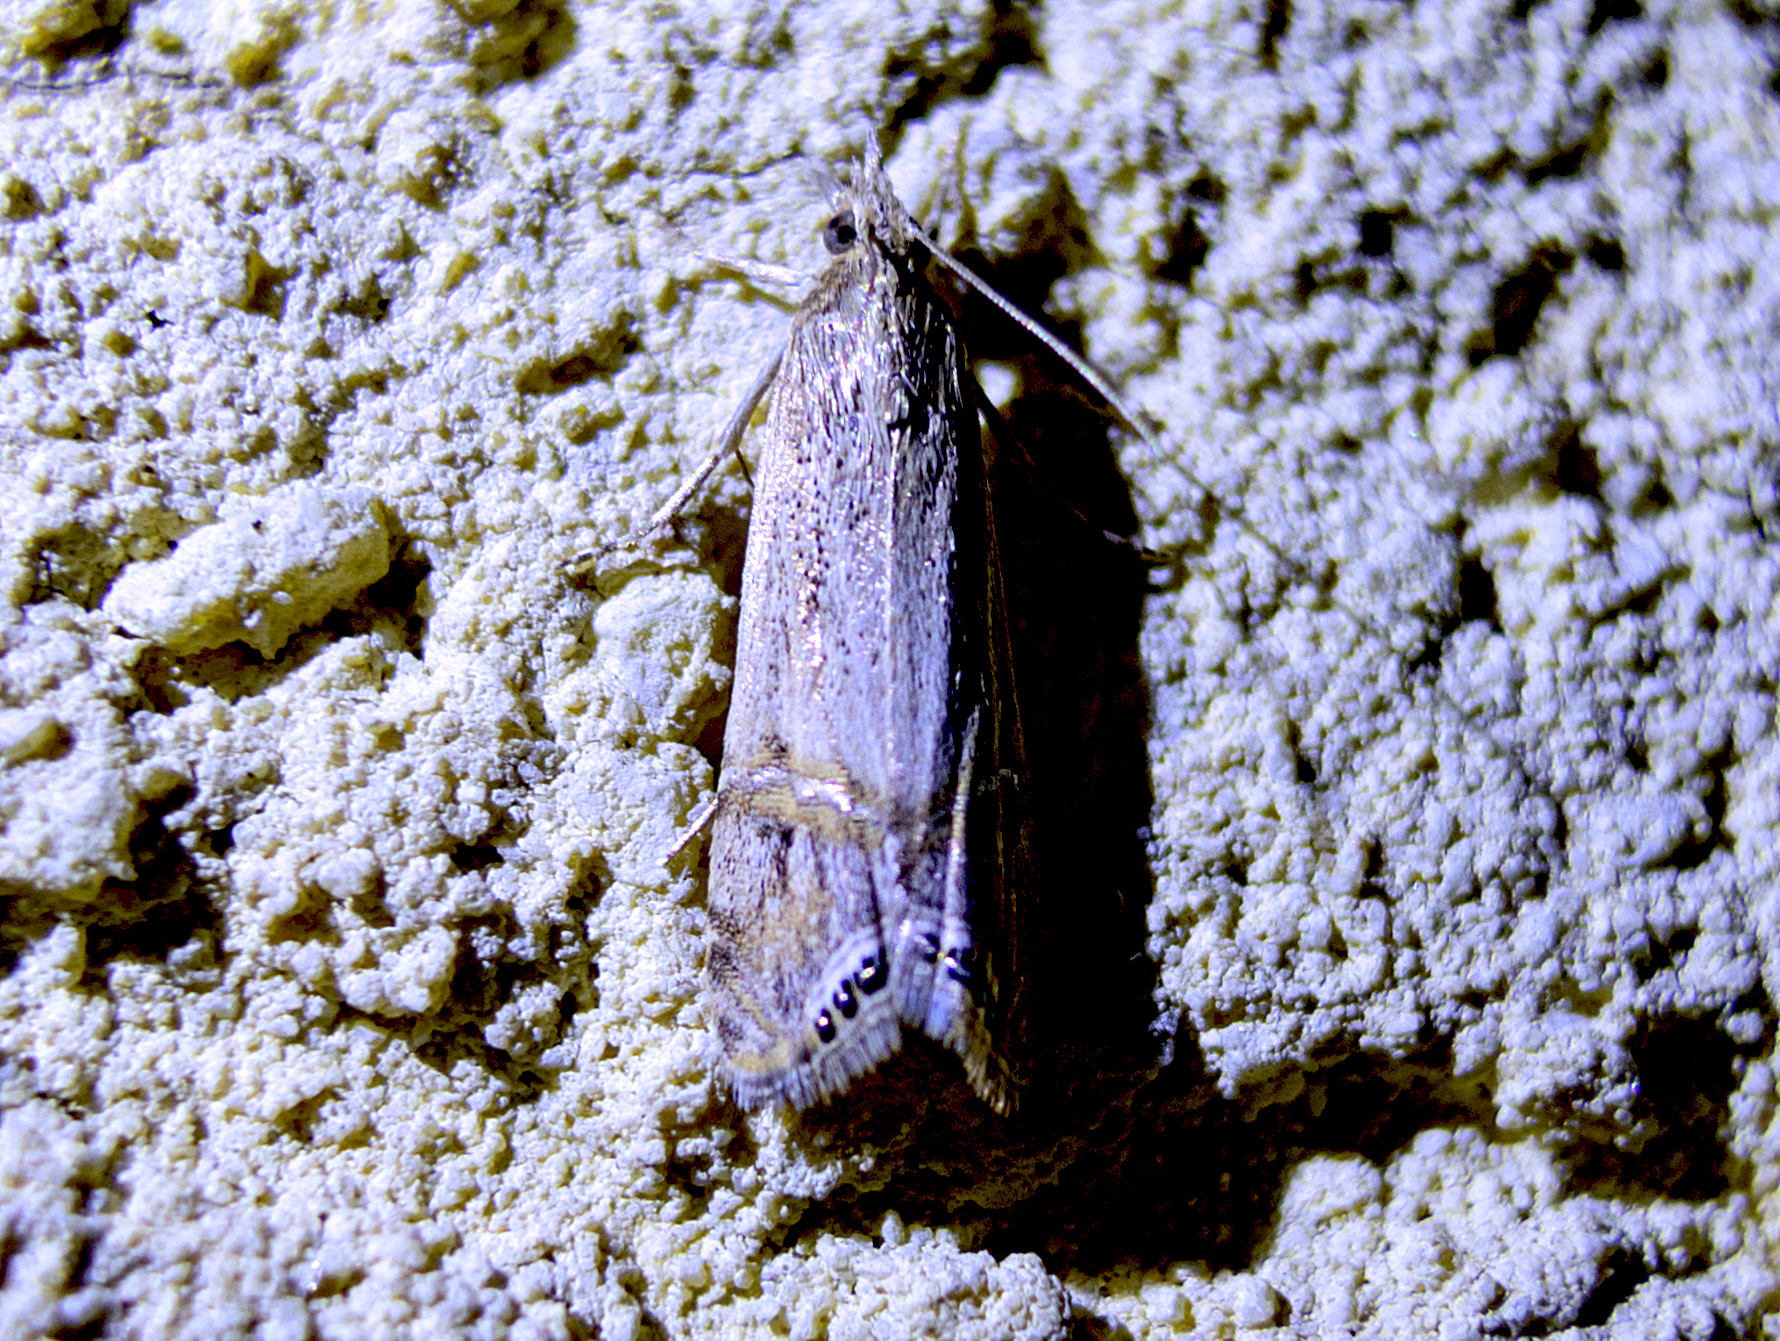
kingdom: Animalia
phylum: Arthropoda
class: Insecta
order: Lepidoptera
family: Crambidae
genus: Euchromius
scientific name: Euchromius ocellea
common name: Necklace veneer moth
